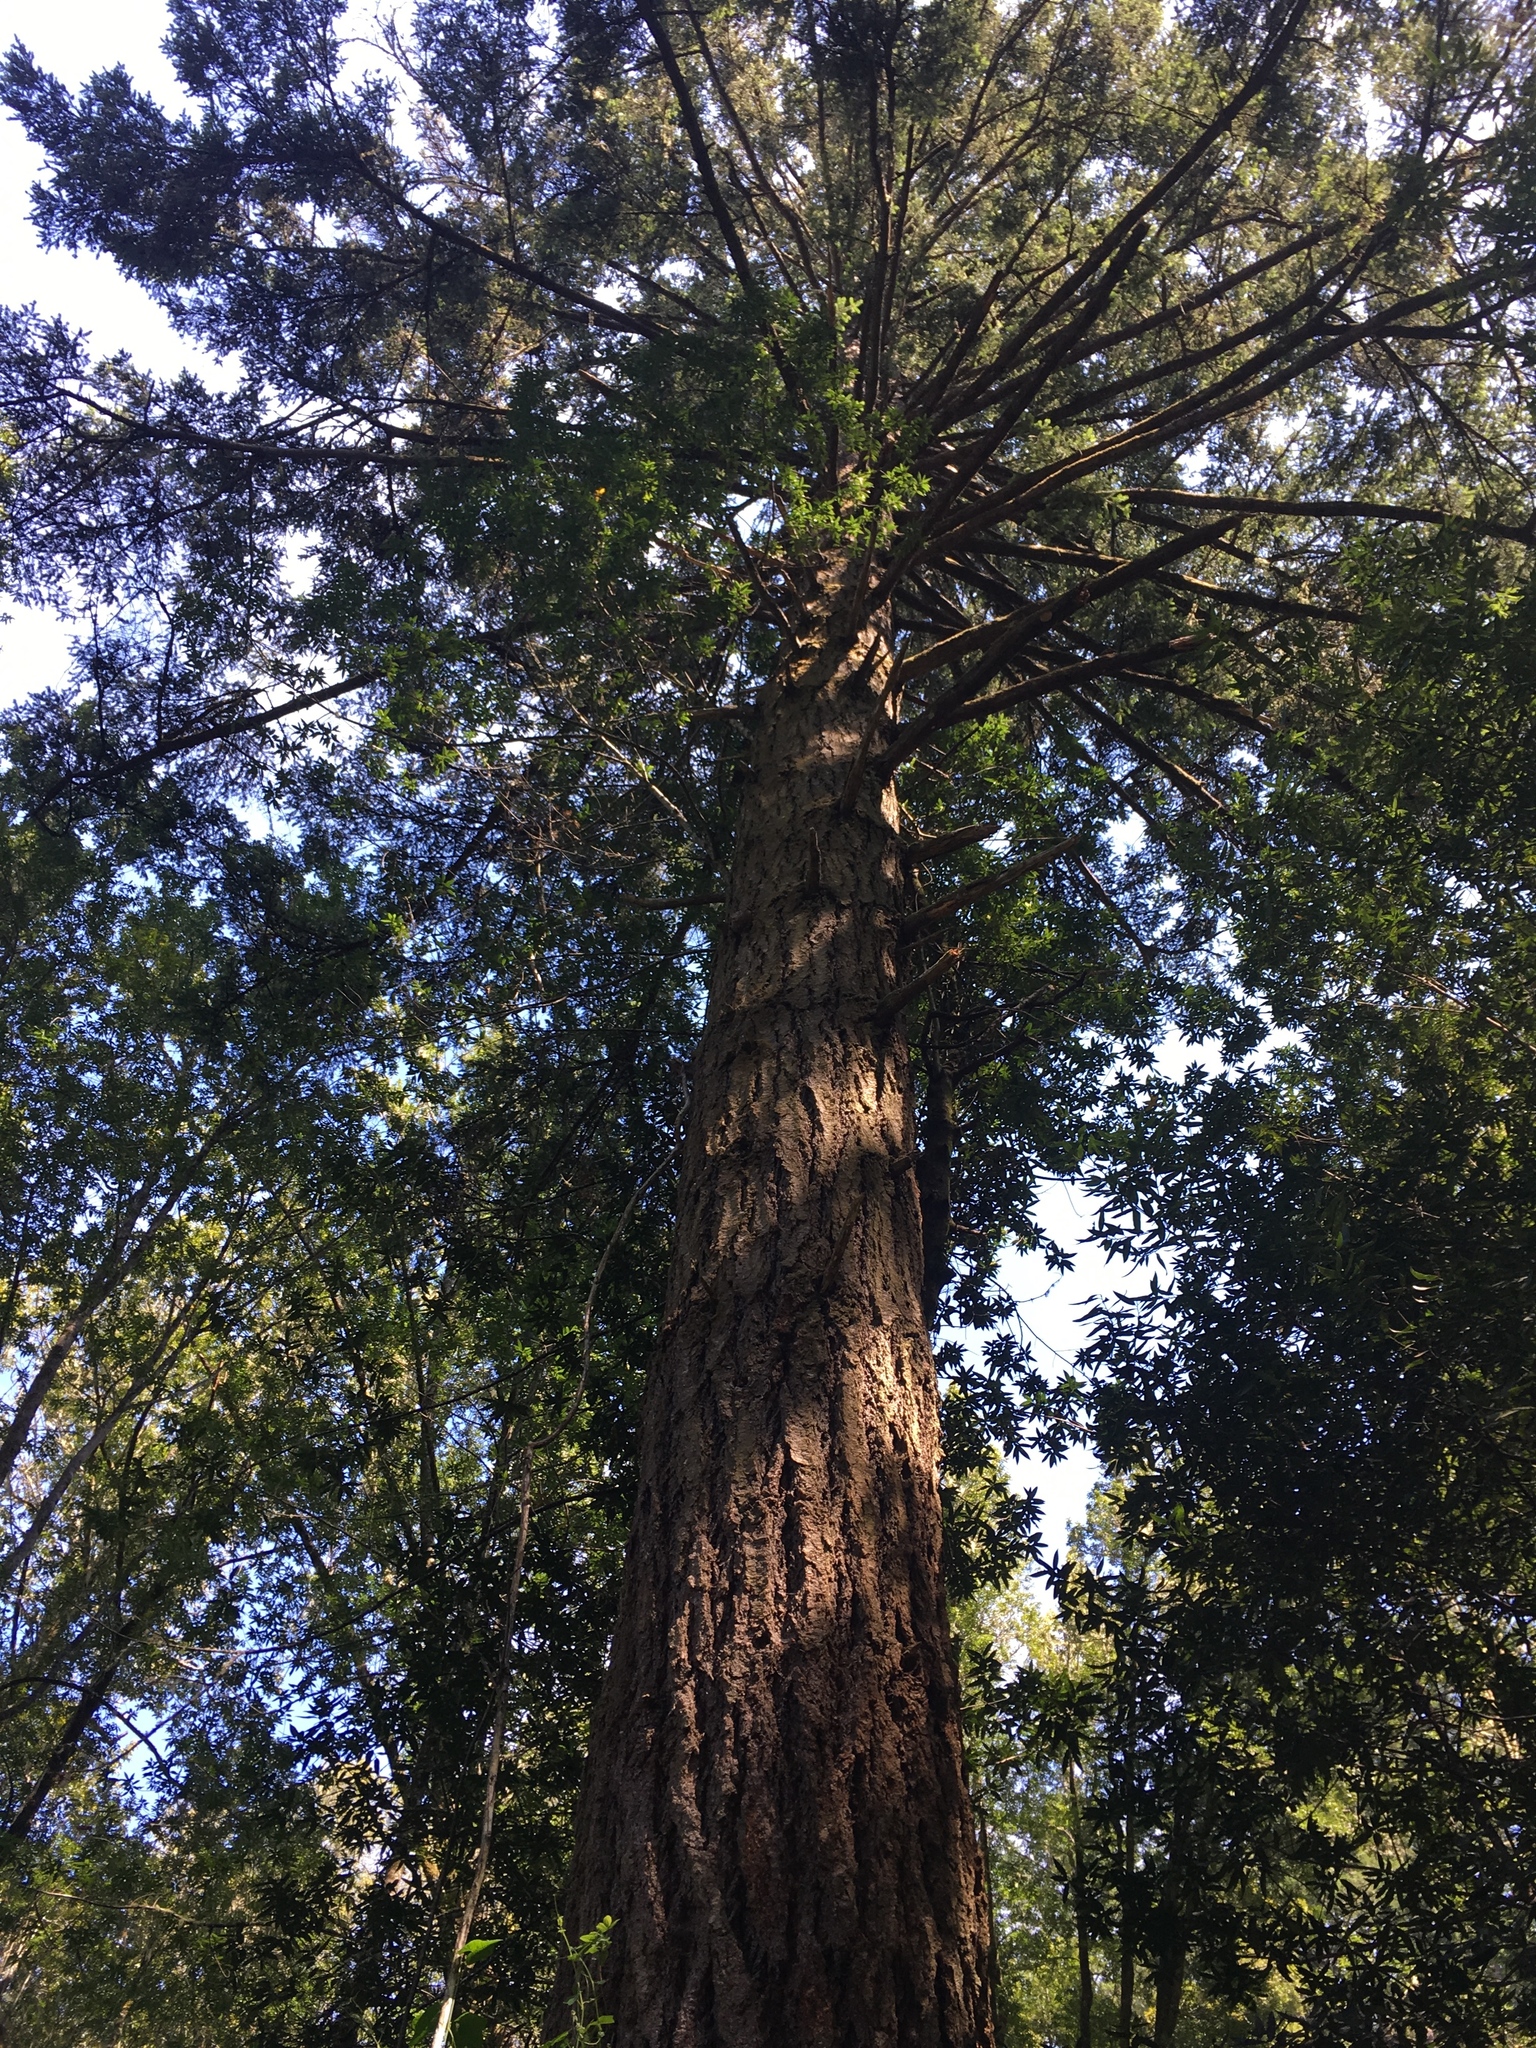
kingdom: Plantae
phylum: Tracheophyta
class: Pinopsida
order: Pinales
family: Pinaceae
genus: Pseudotsuga
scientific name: Pseudotsuga menziesii
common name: Douglas fir
